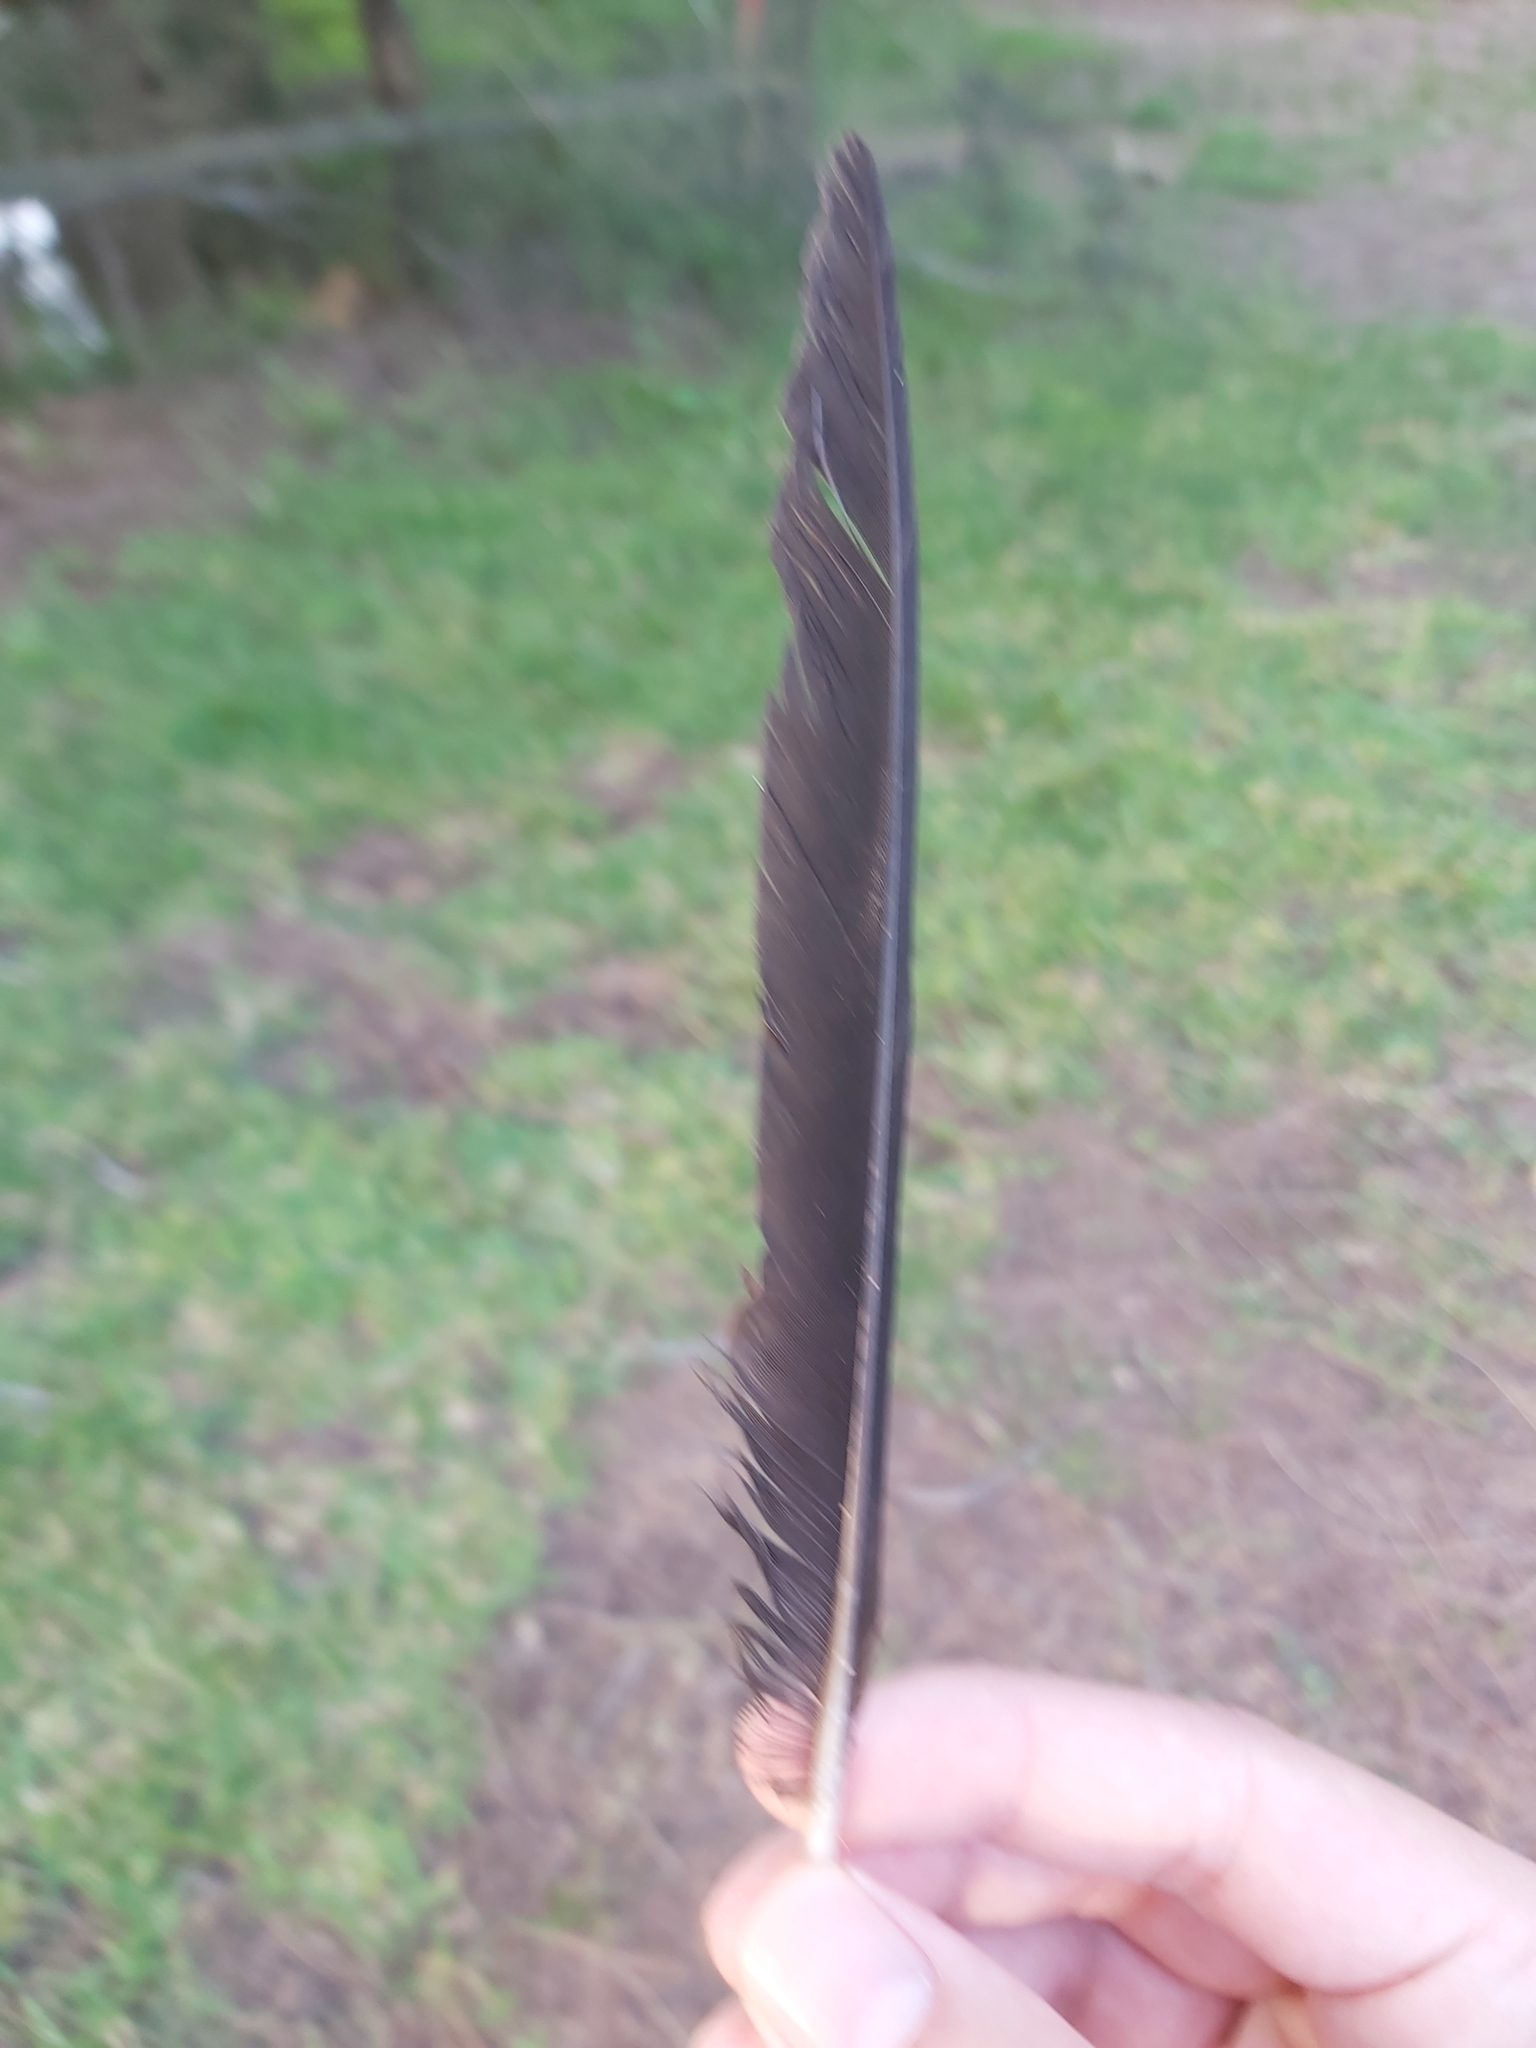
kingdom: Animalia
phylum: Chordata
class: Aves
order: Passeriformes
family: Cracticidae
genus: Gymnorhina
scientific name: Gymnorhina tibicen
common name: Australian magpie
